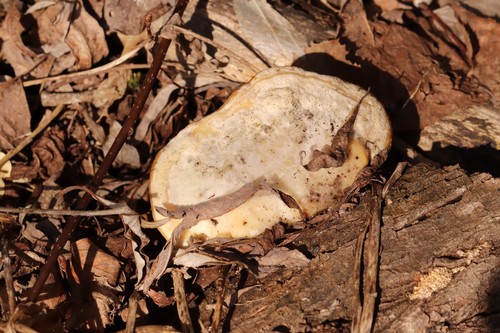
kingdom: Fungi
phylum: Basidiomycota
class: Agaricomycetes
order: Polyporales
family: Polyporaceae
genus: Trametes
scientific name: Trametes suaveolens
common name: Fragrant bracket
